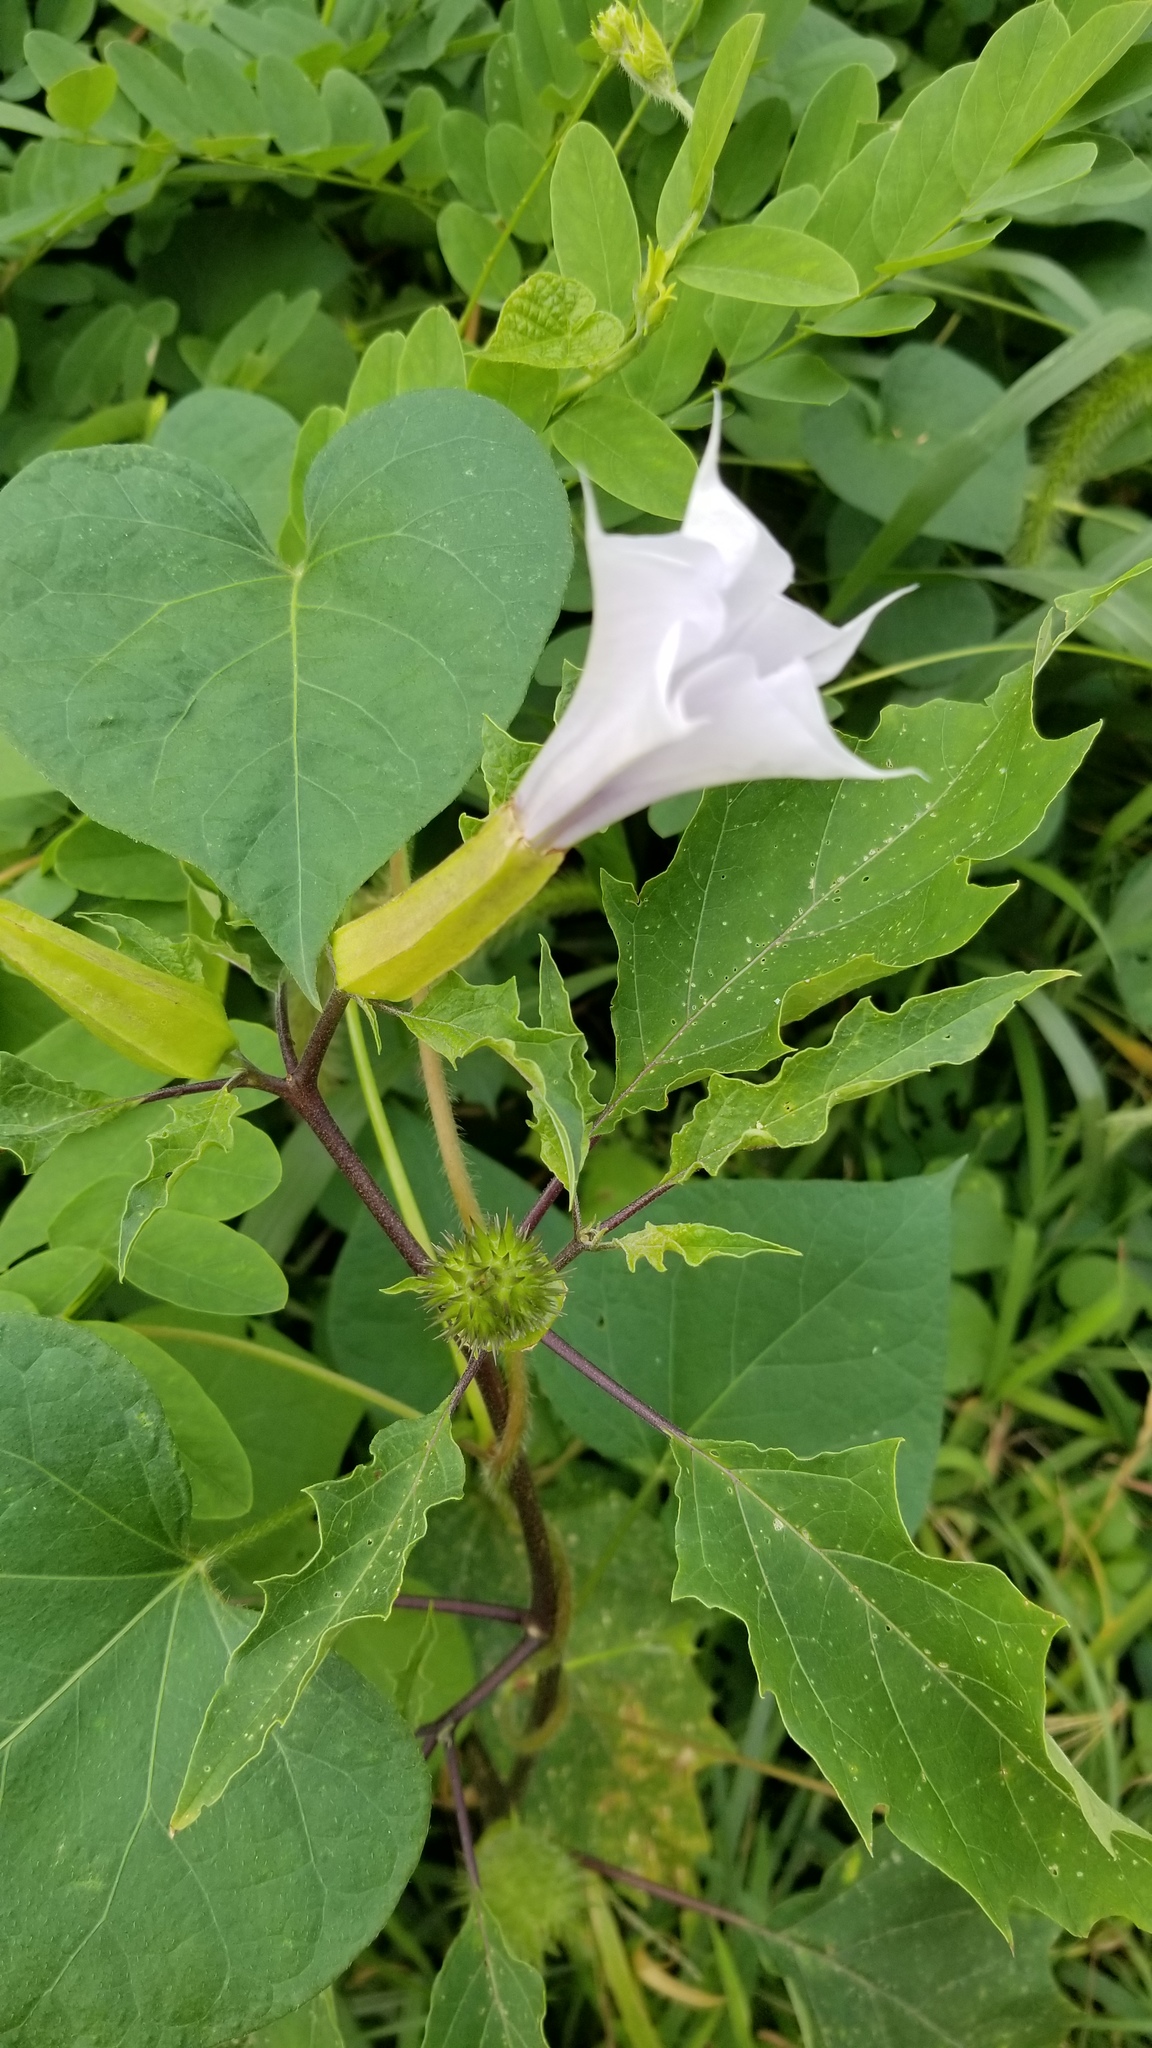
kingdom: Plantae
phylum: Tracheophyta
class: Magnoliopsida
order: Solanales
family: Solanaceae
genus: Datura
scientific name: Datura stramonium
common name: Thorn-apple
